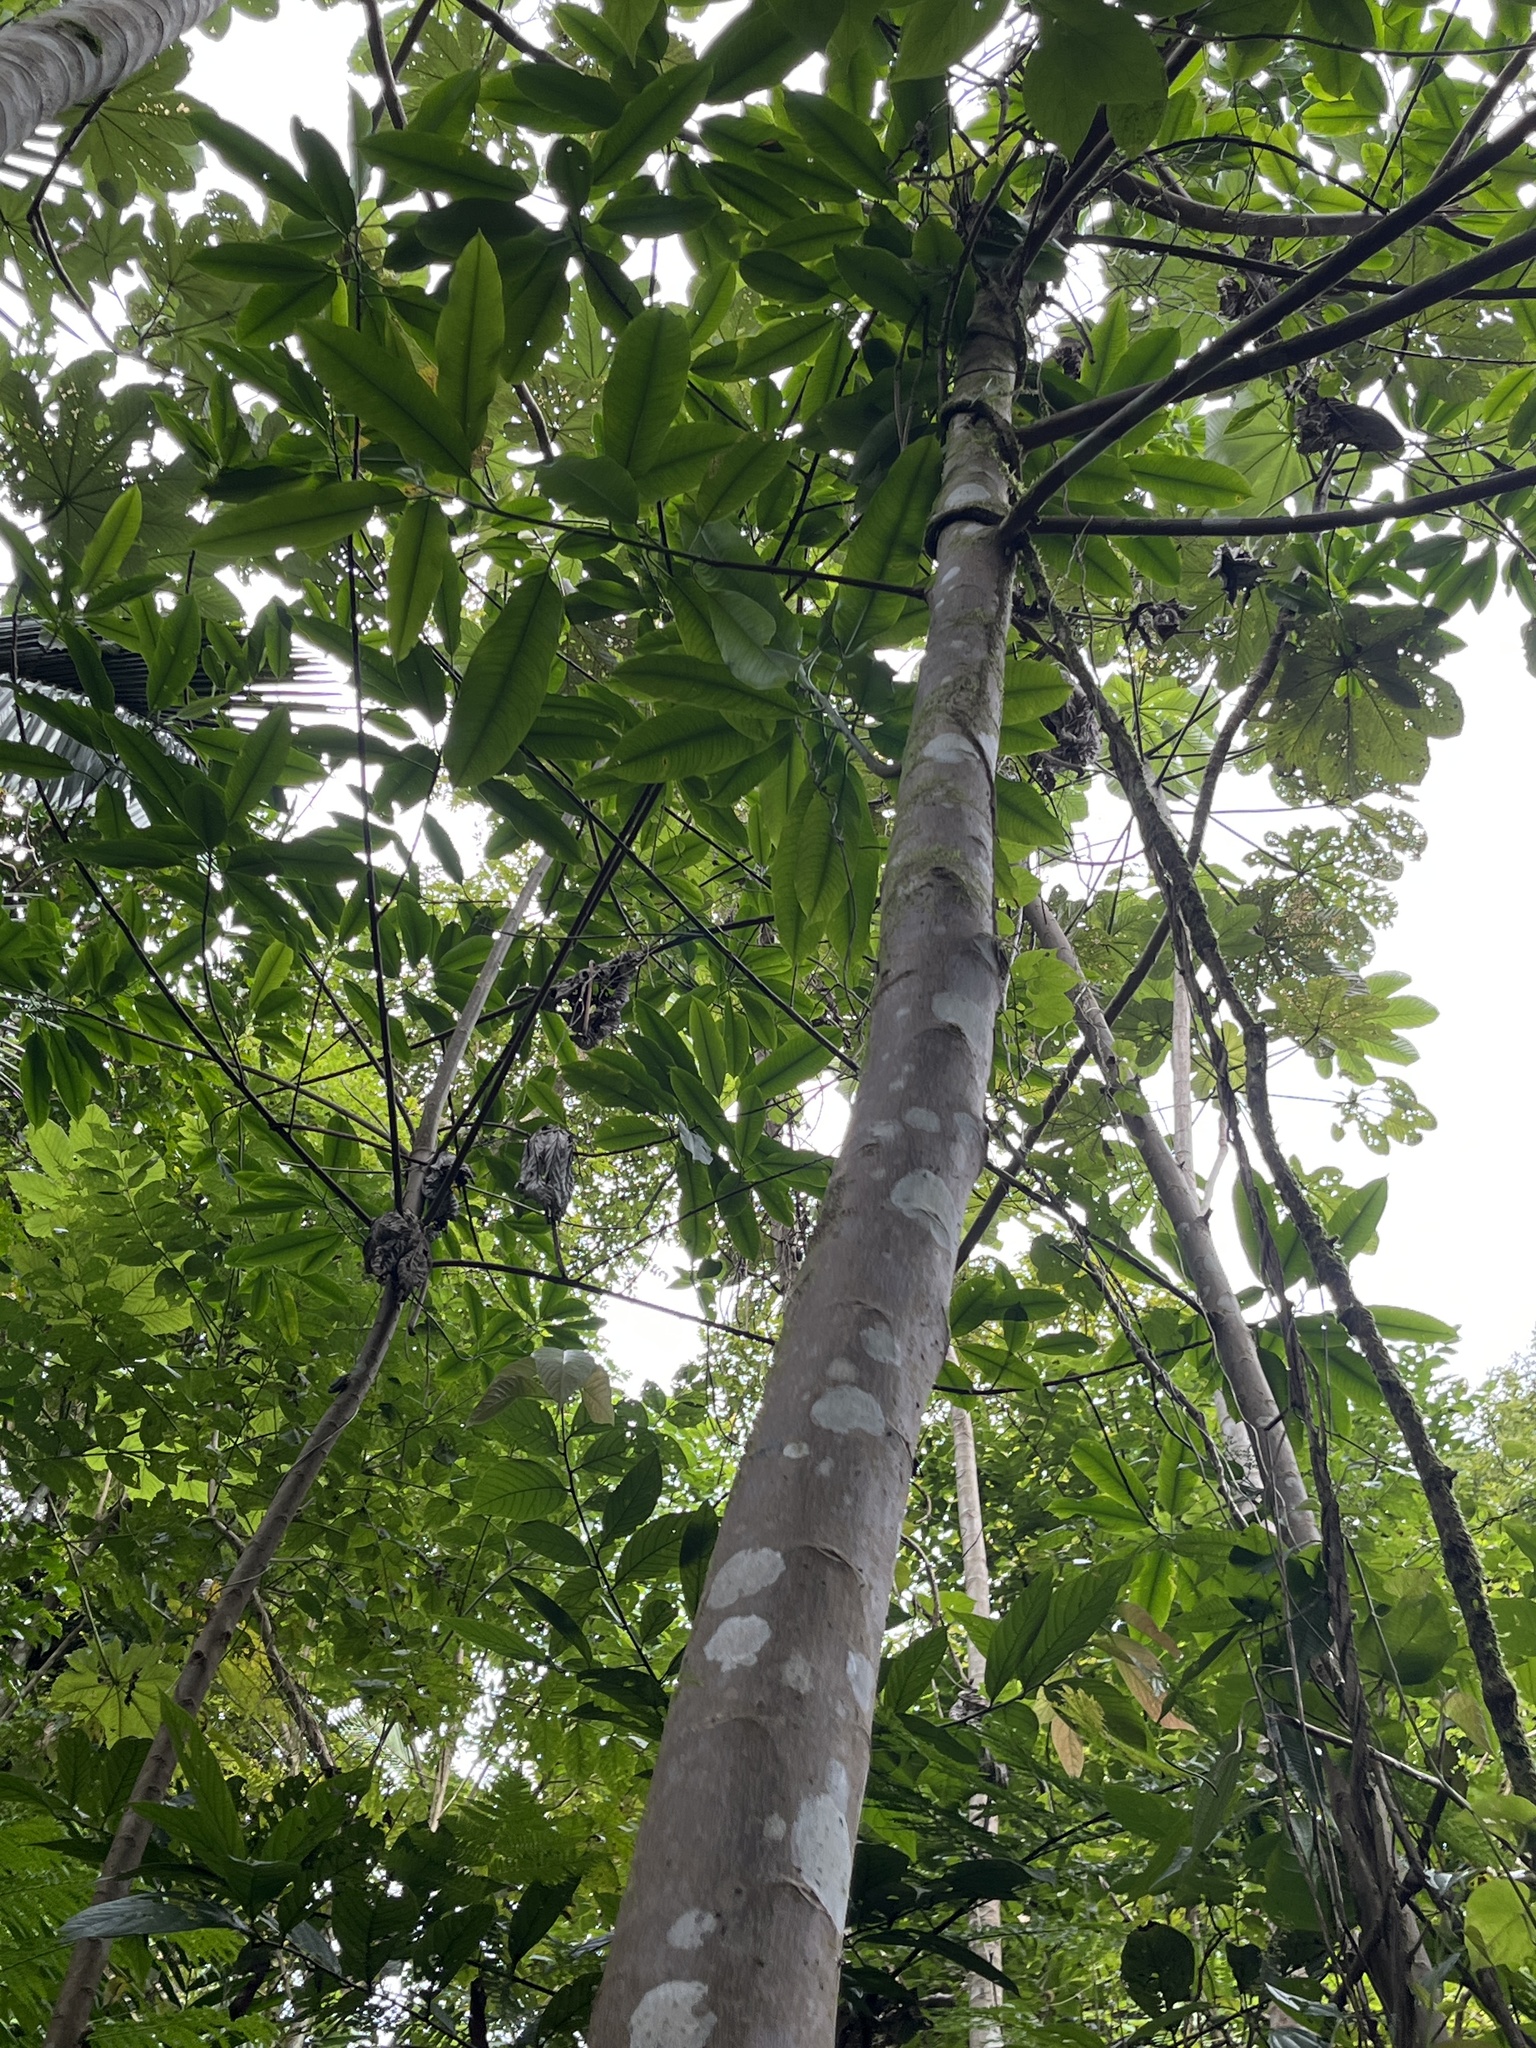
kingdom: Plantae
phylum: Tracheophyta
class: Magnoliopsida
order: Malpighiales
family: Euphorbiaceae
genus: Sapium
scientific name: Sapium laurocerasus
